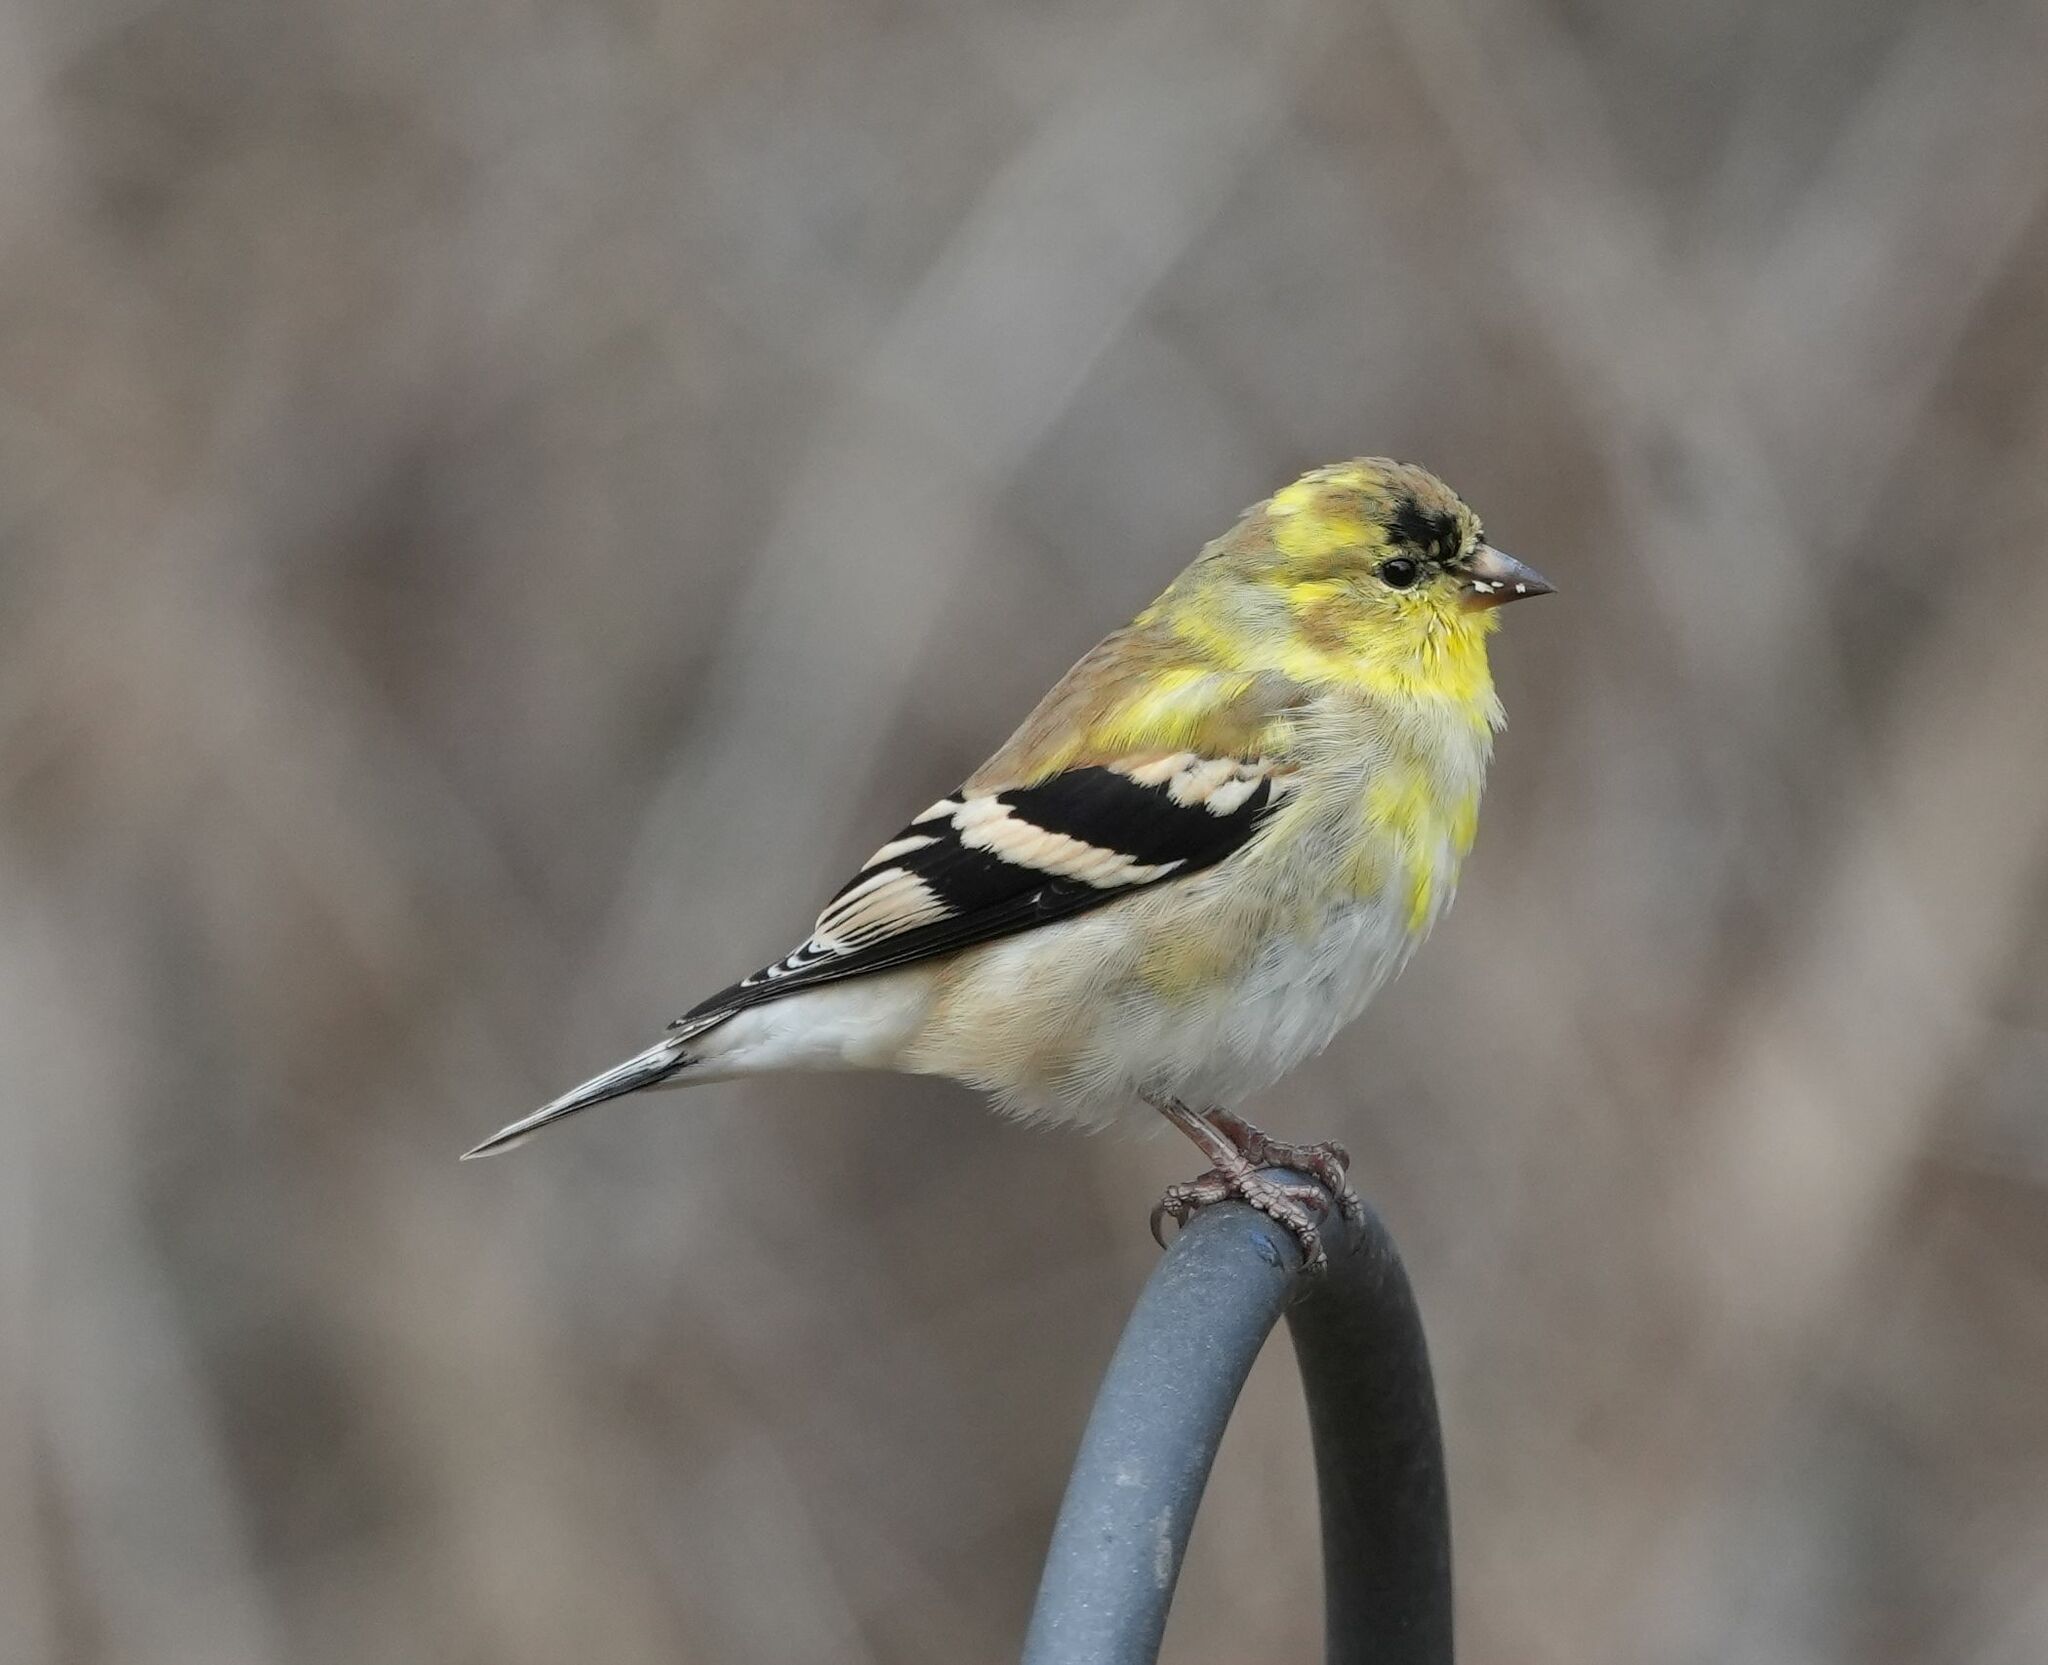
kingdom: Animalia
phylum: Chordata
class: Aves
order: Passeriformes
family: Fringillidae
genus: Spinus
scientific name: Spinus tristis
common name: American goldfinch
